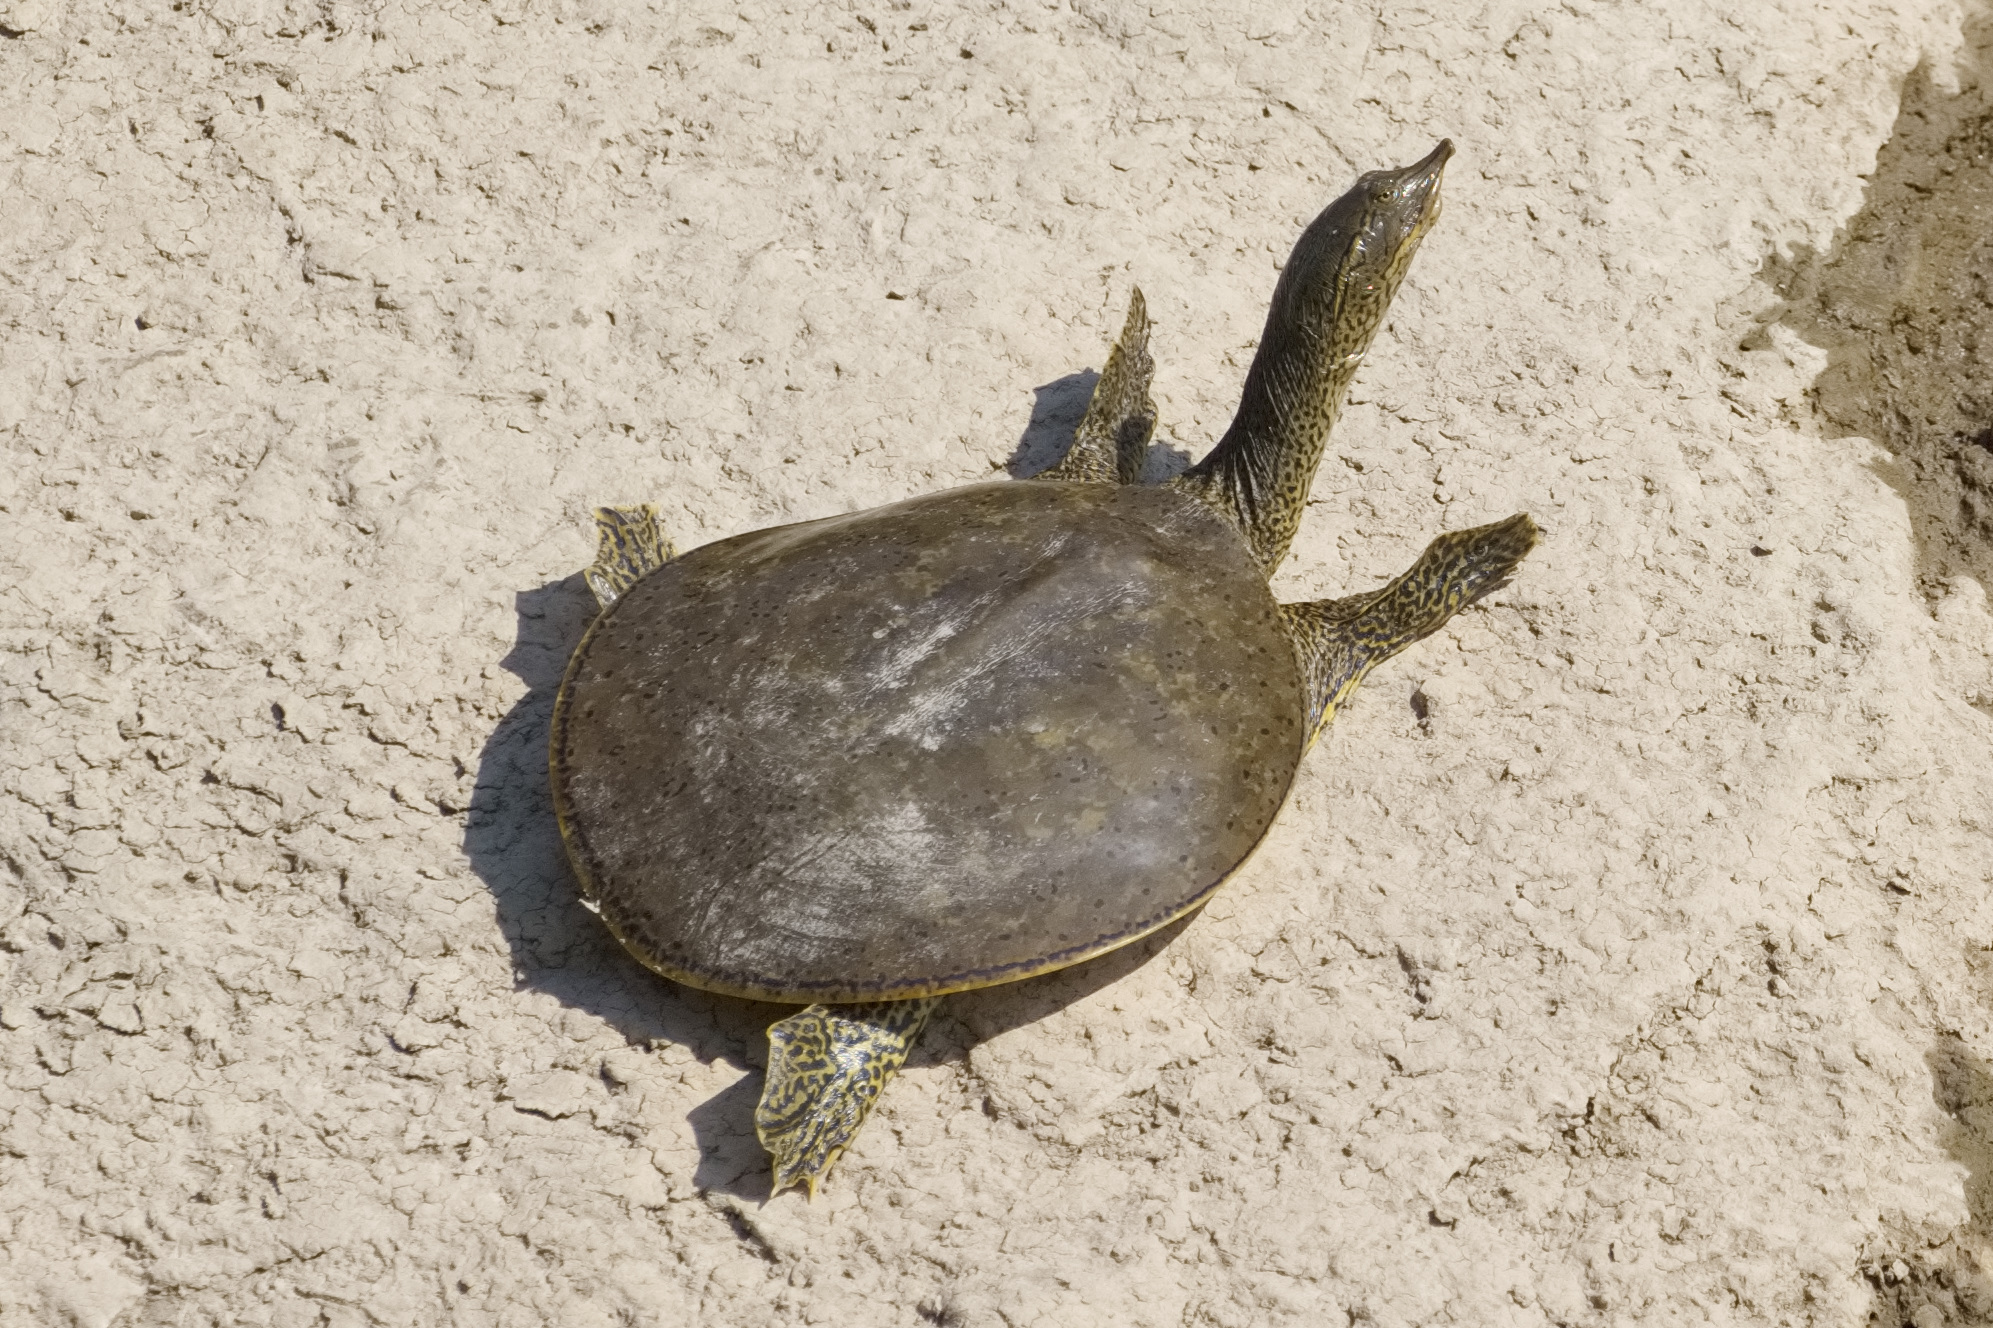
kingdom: Animalia
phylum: Chordata
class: Testudines
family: Trionychidae
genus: Apalone
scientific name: Apalone spinifera
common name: Spiny softshell turtle
